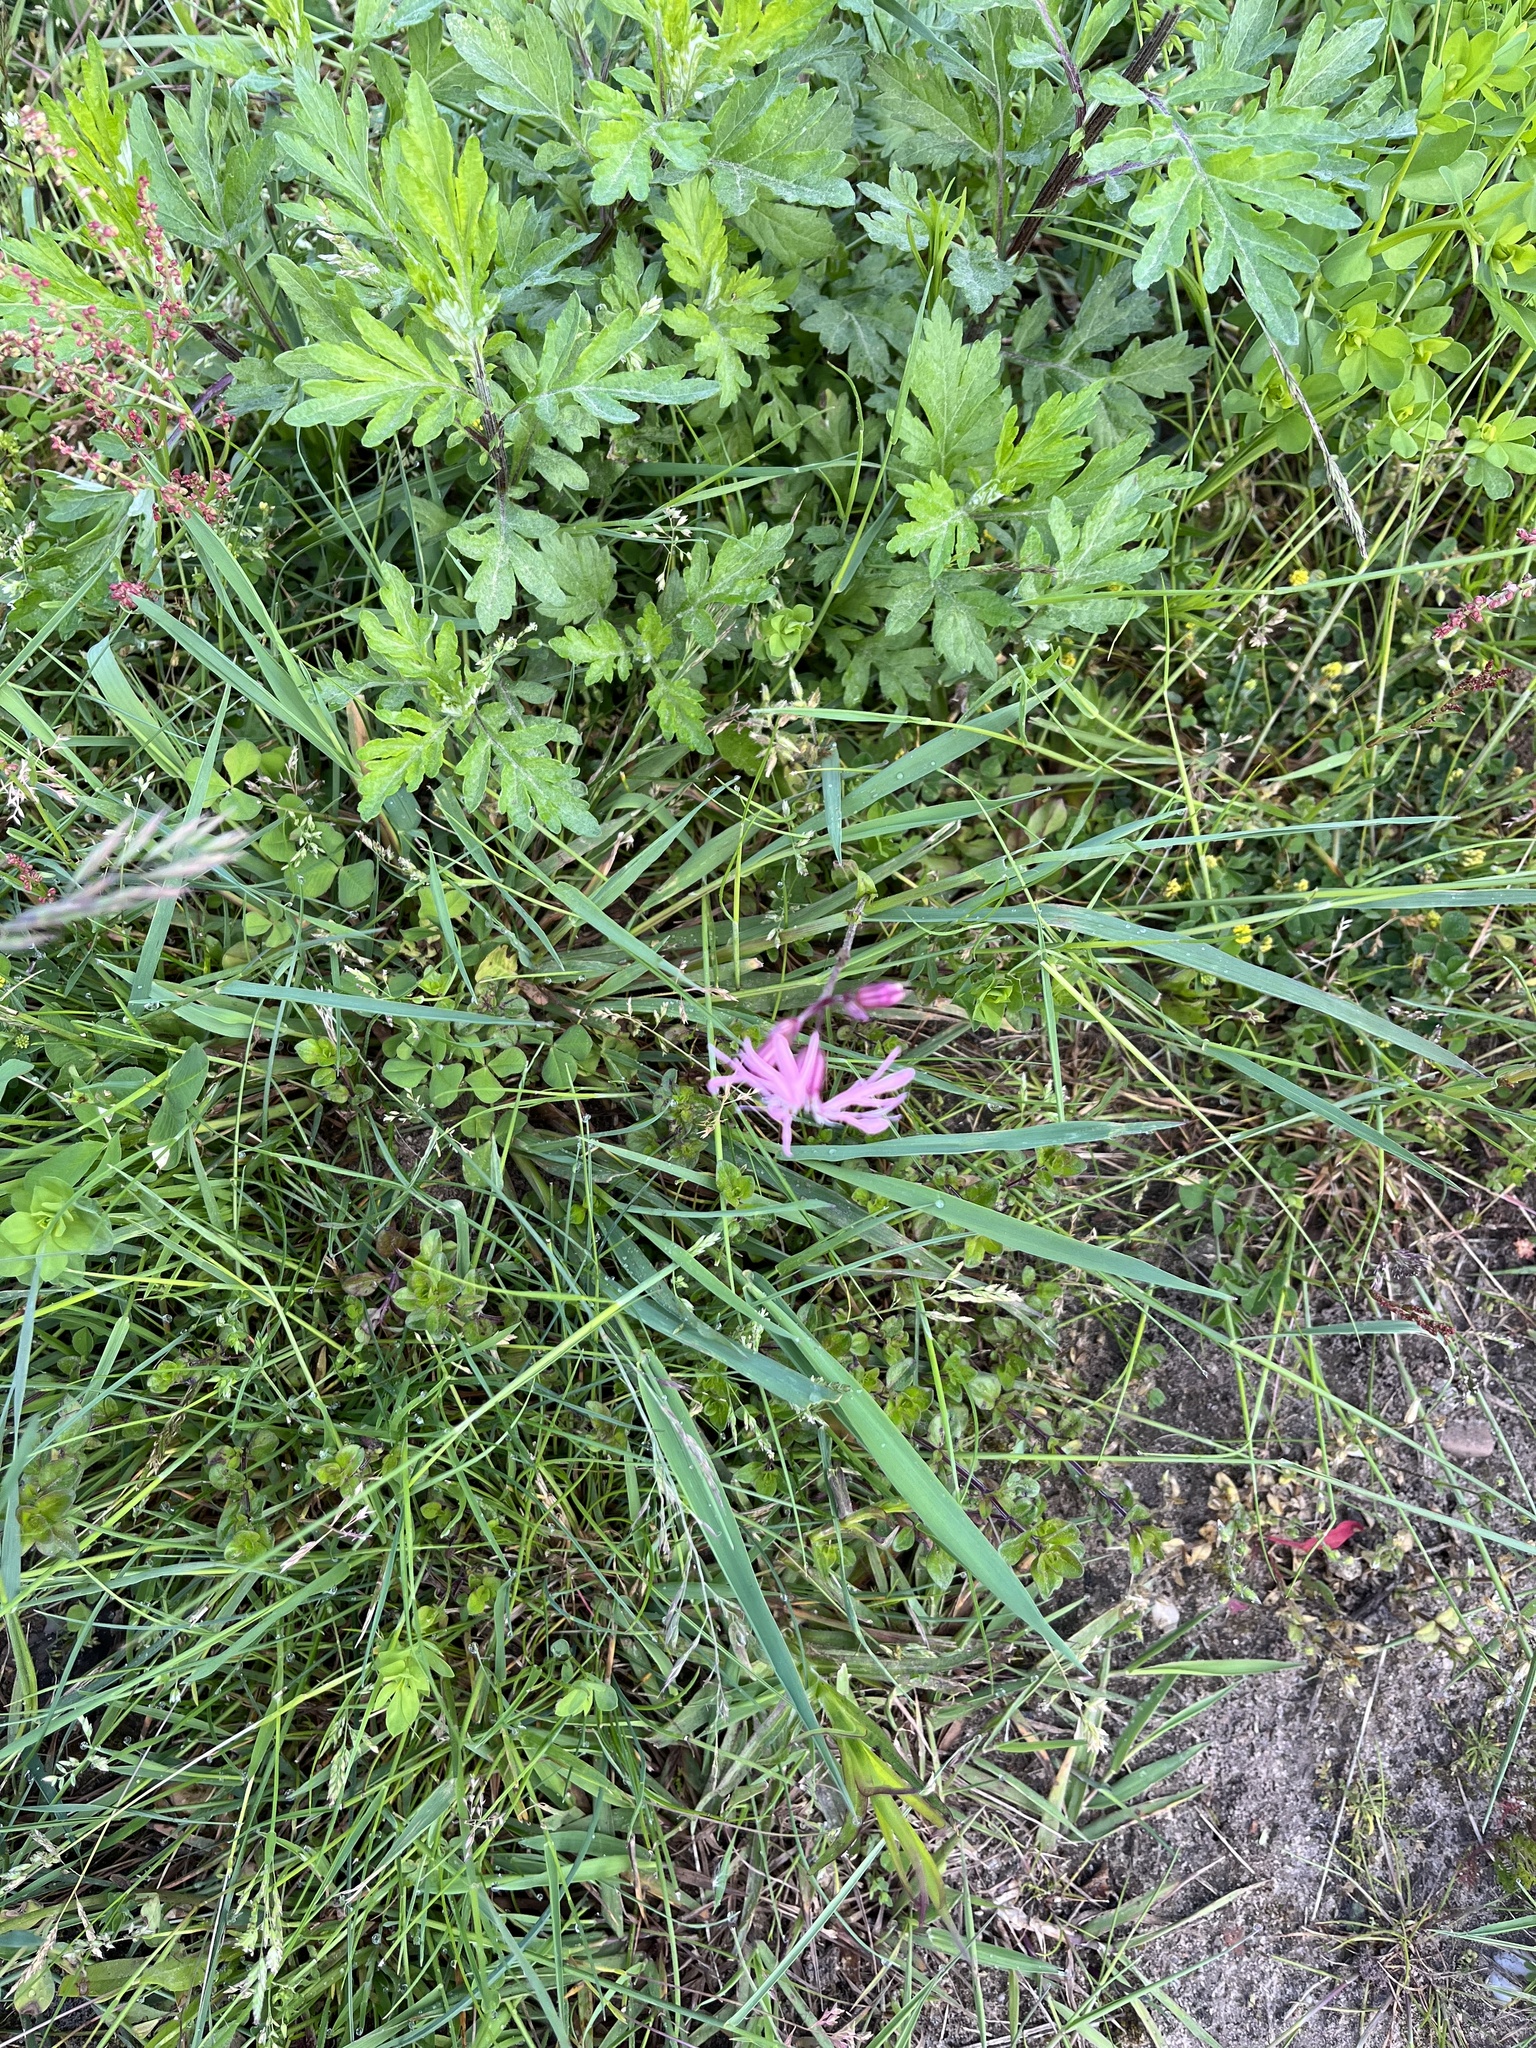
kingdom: Plantae
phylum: Tracheophyta
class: Magnoliopsida
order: Caryophyllales
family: Caryophyllaceae
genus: Silene
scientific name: Silene flos-cuculi
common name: Ragged-robin
